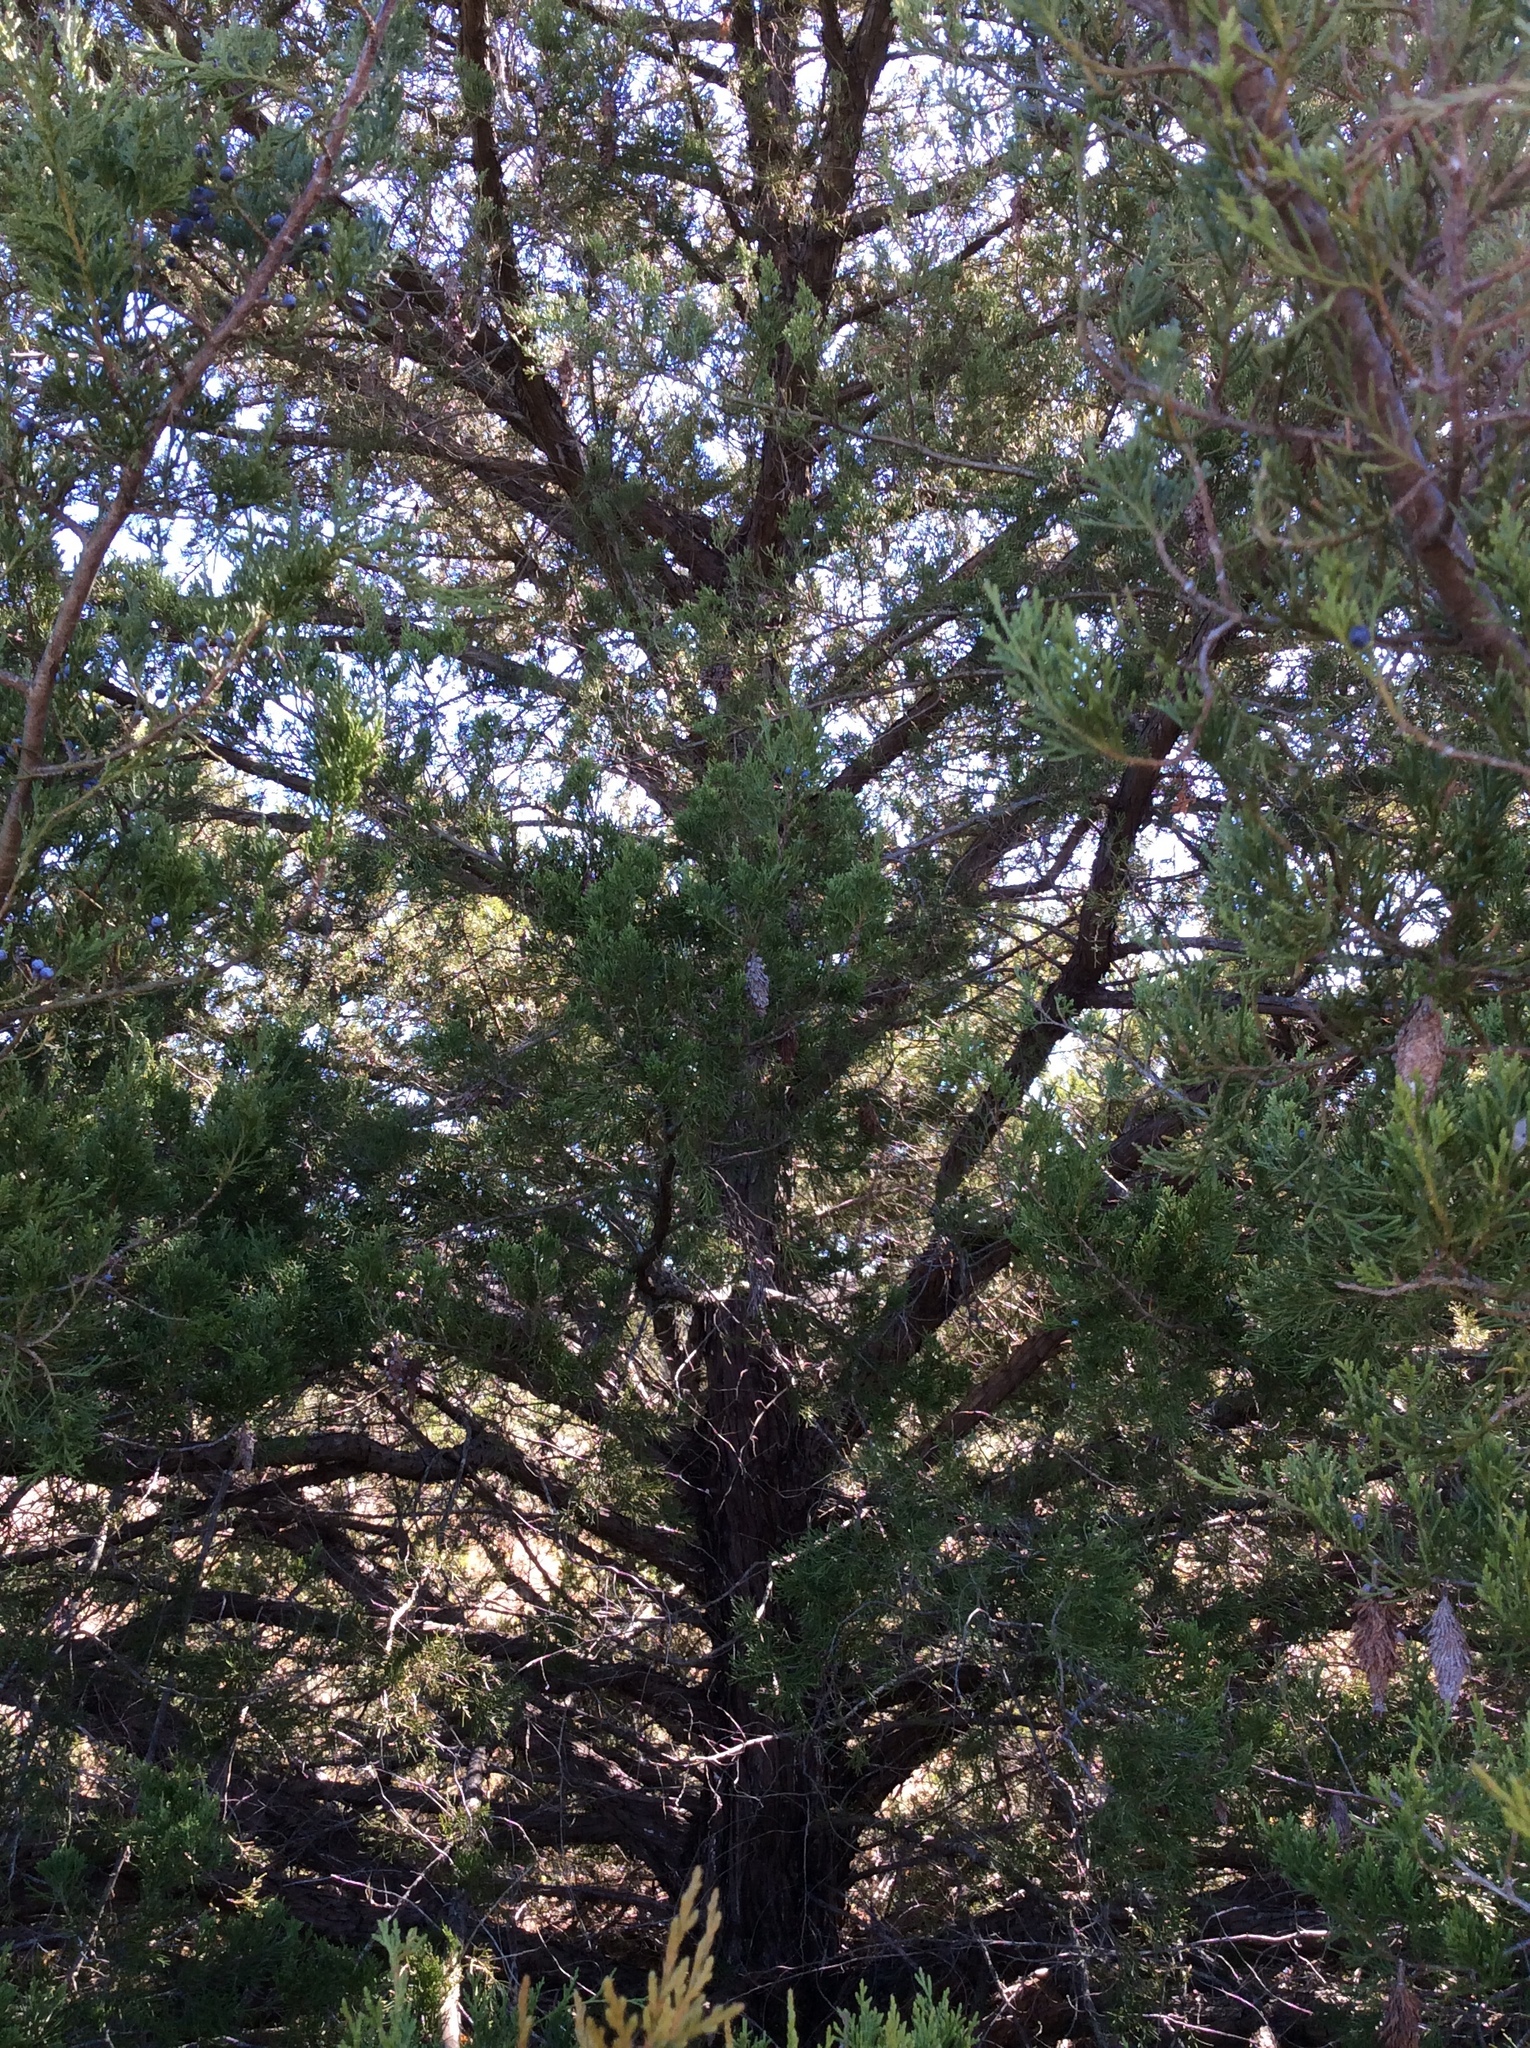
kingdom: Plantae
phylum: Tracheophyta
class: Pinopsida
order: Pinales
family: Cupressaceae
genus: Juniperus
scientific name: Juniperus virginiana
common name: Red juniper
